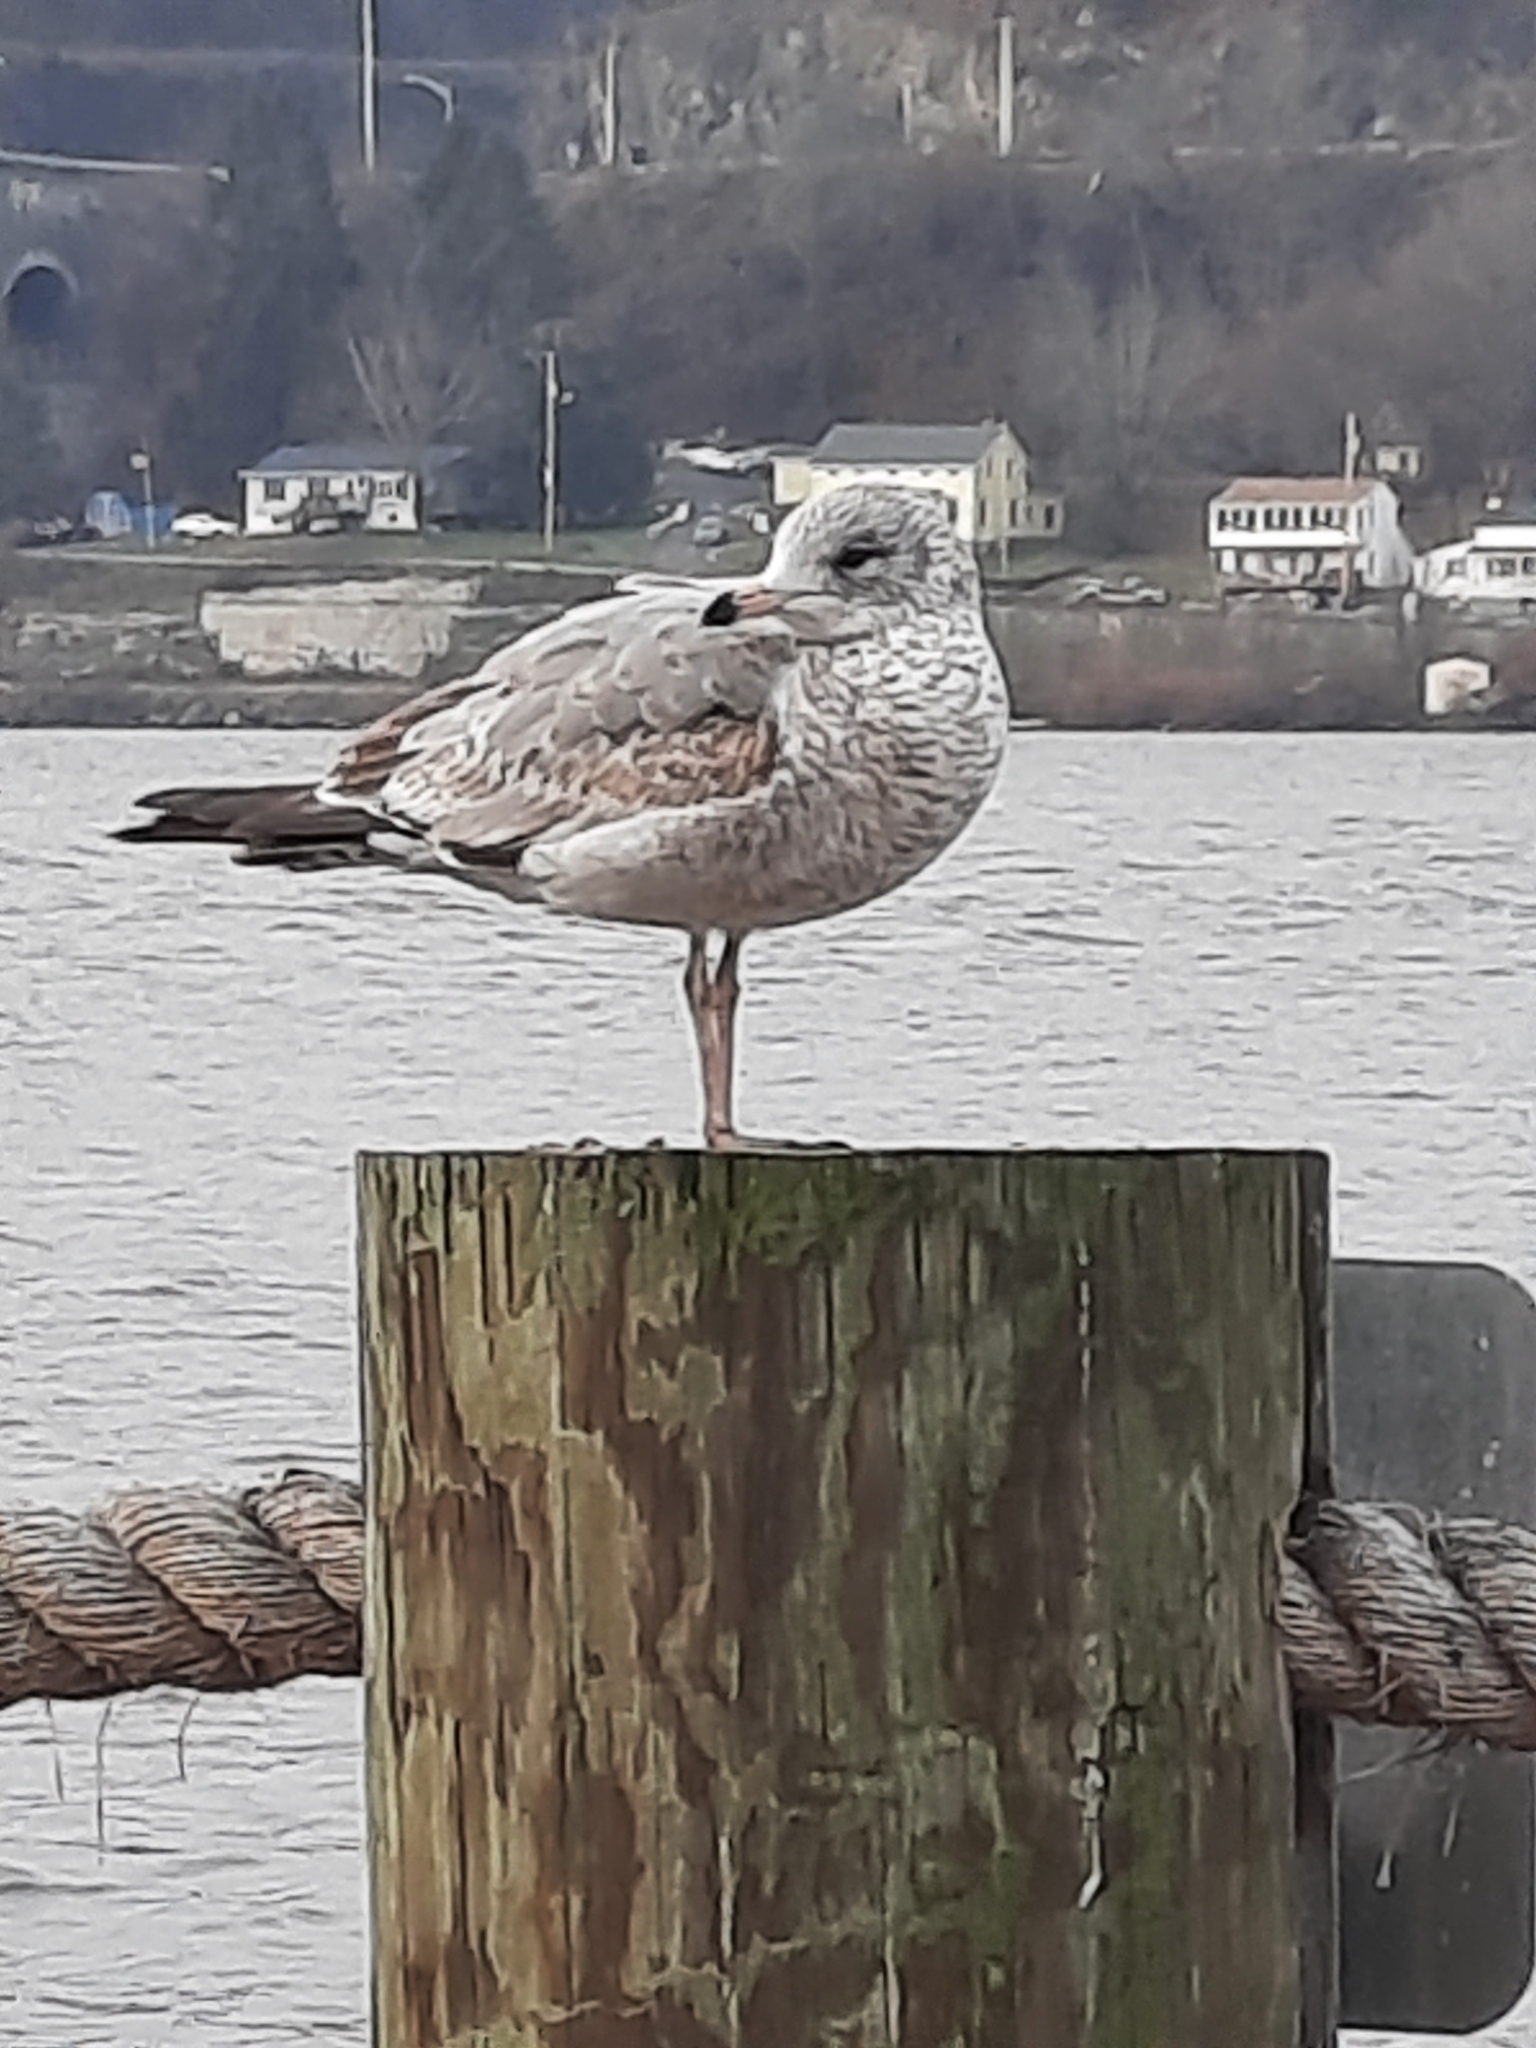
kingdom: Animalia
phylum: Chordata
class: Aves
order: Charadriiformes
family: Laridae
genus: Larus
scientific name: Larus delawarensis
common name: Ring-billed gull
